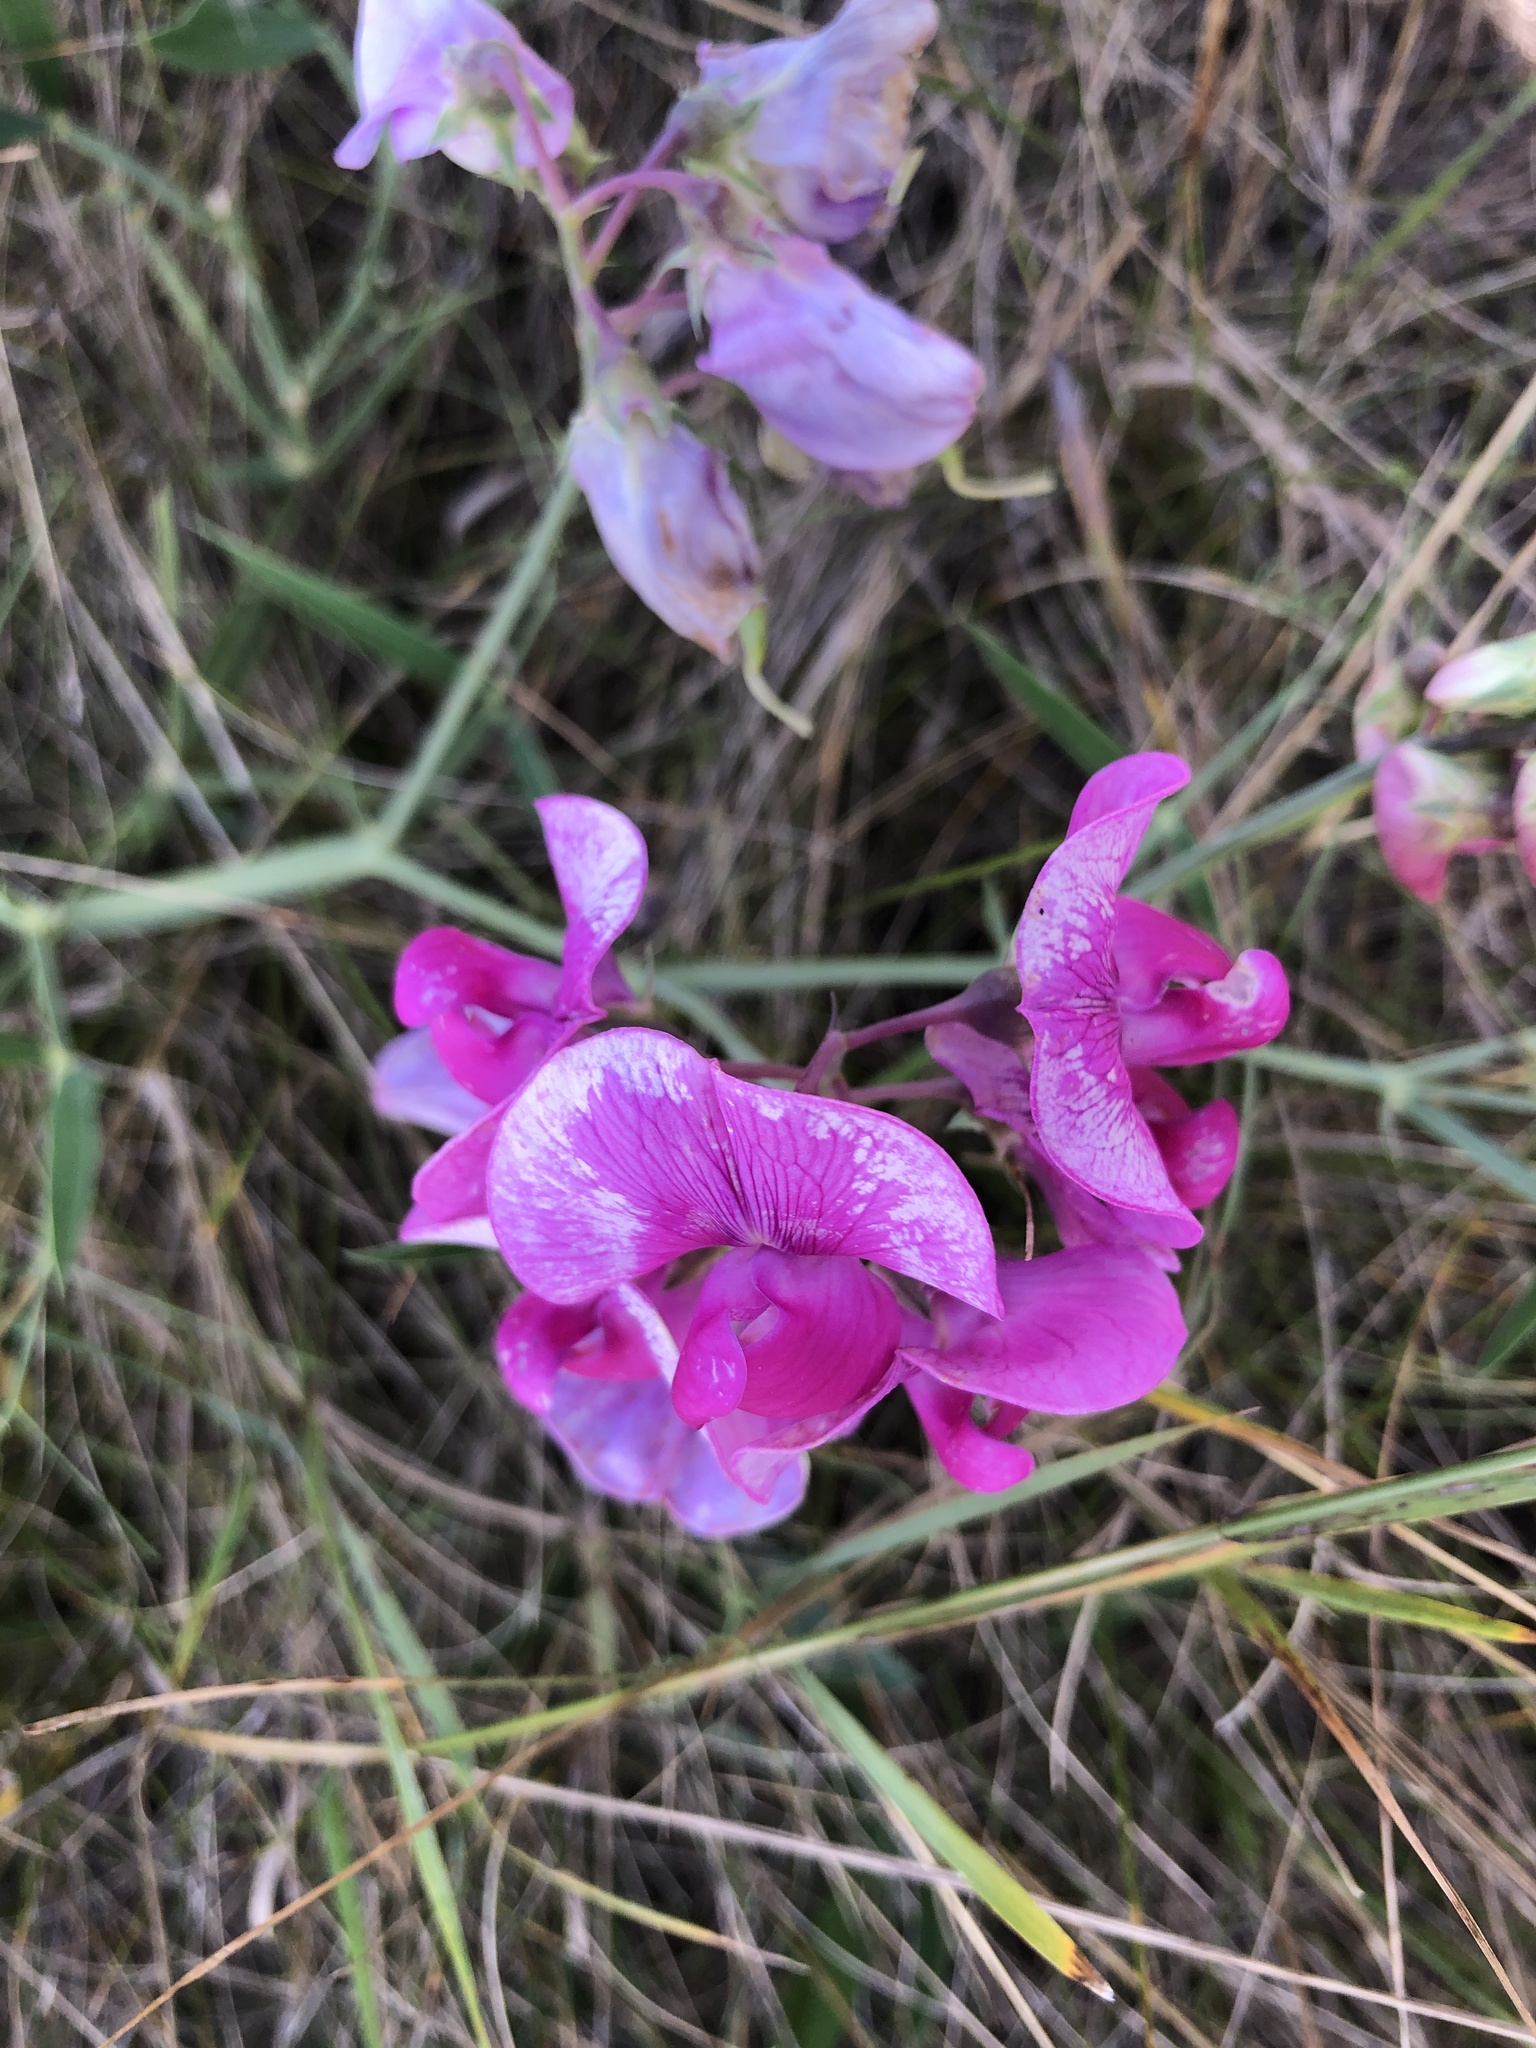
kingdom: Plantae
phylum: Tracheophyta
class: Magnoliopsida
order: Fabales
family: Fabaceae
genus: Lathyrus
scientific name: Lathyrus latifolius
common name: Perennial pea
